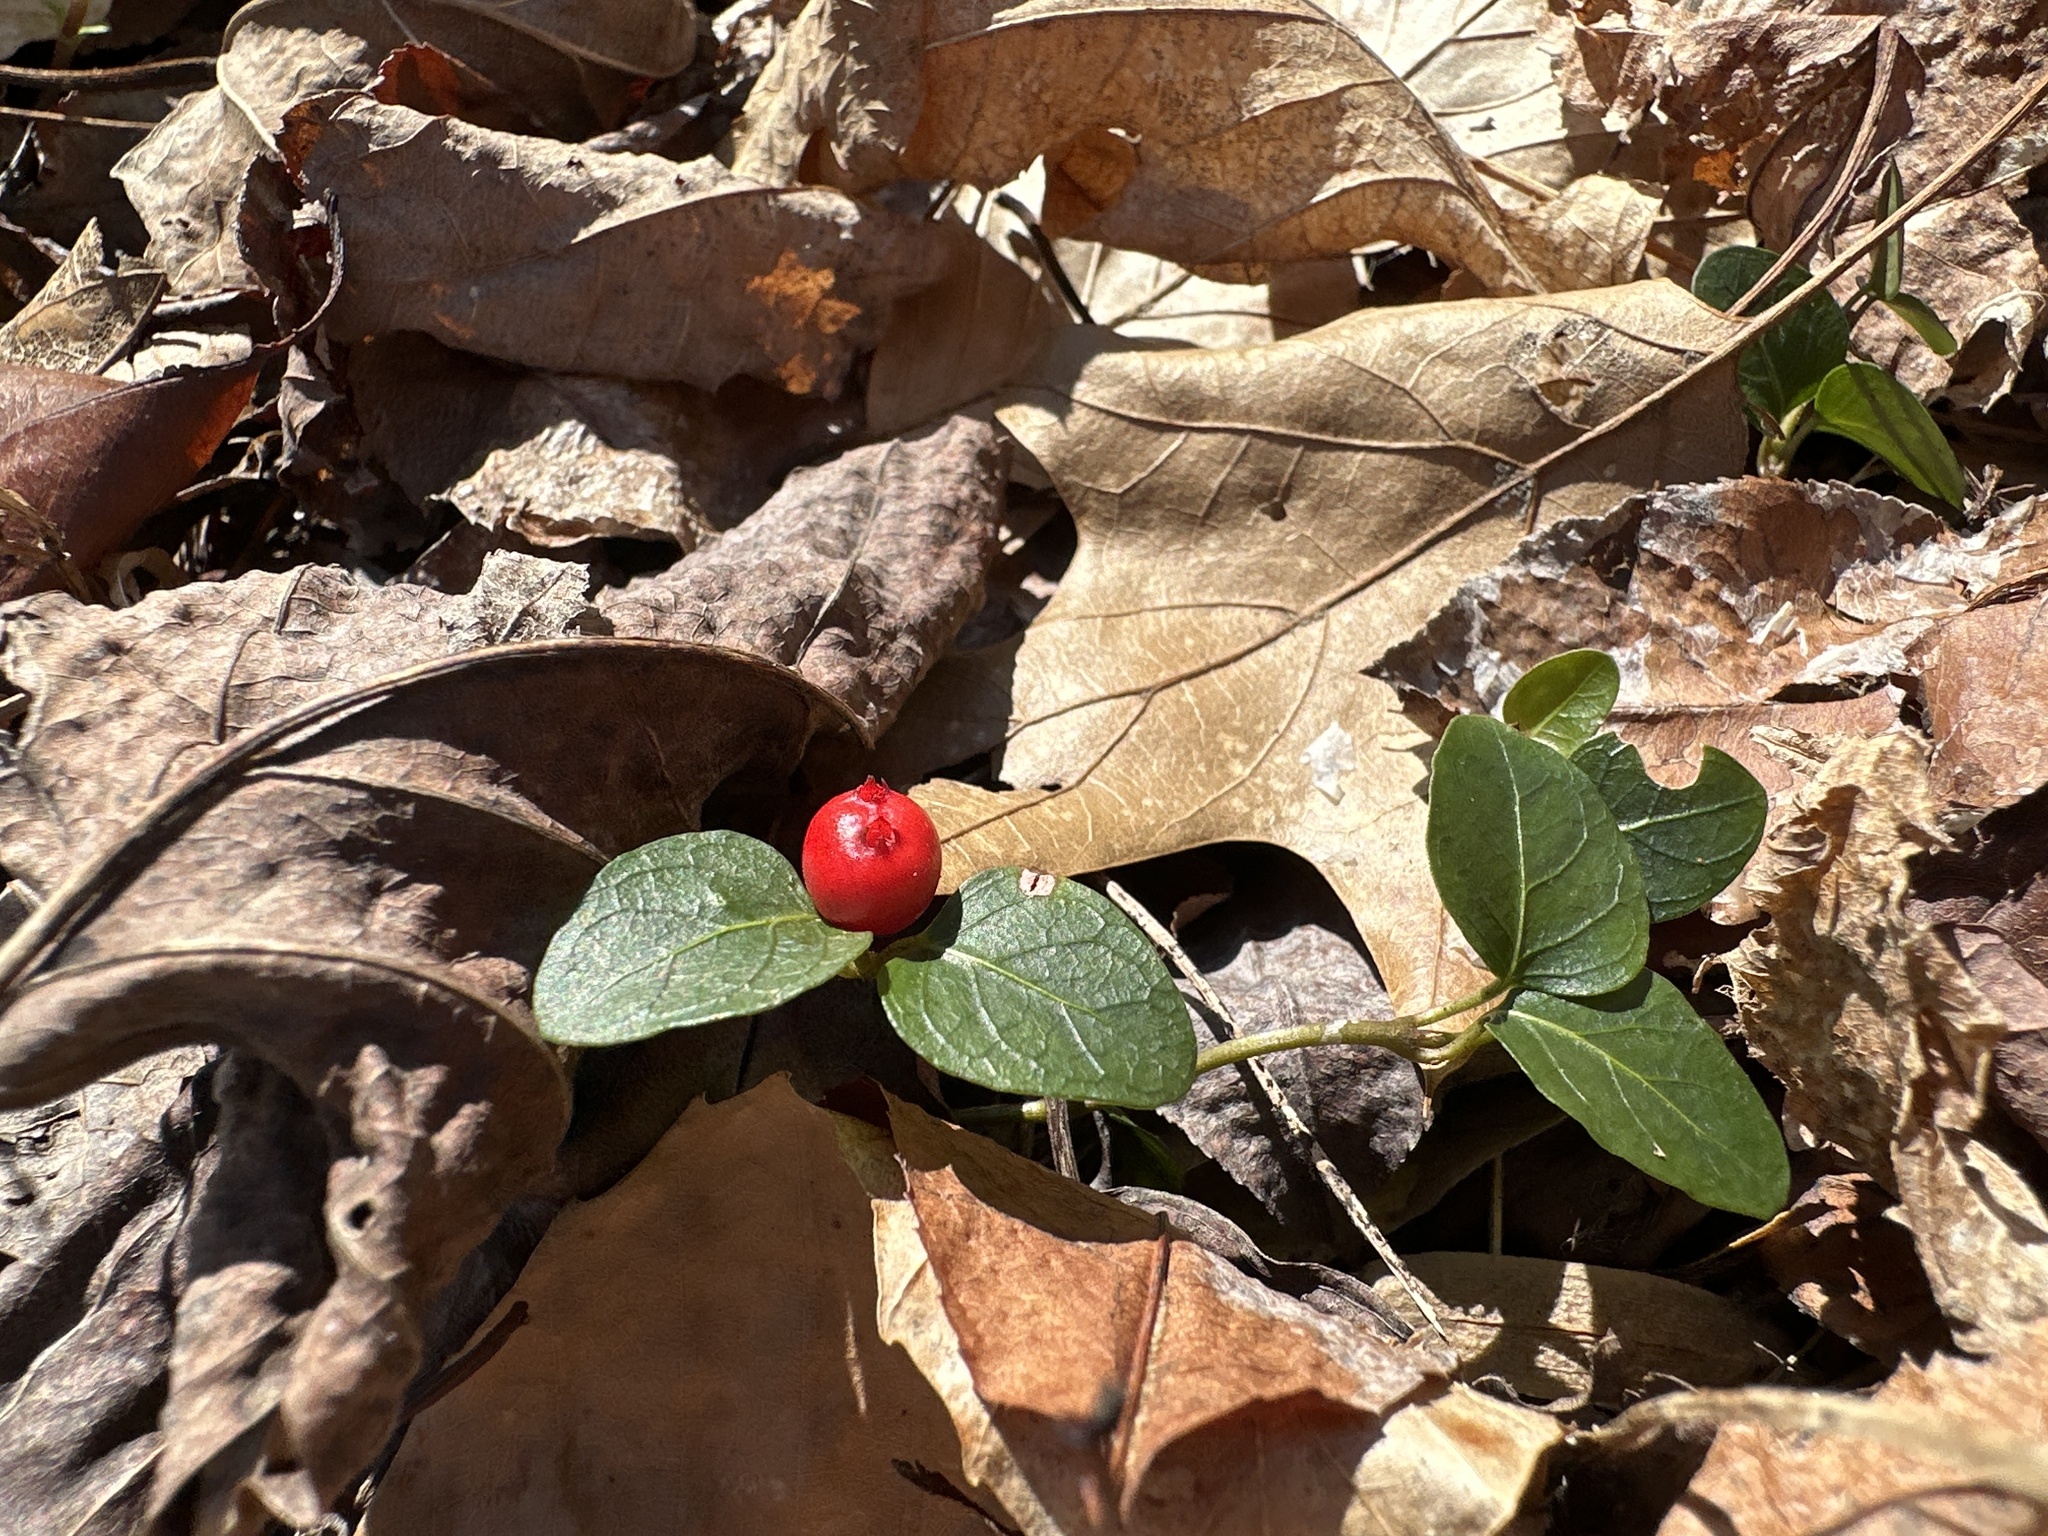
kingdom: Plantae
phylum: Tracheophyta
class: Magnoliopsida
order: Gentianales
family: Rubiaceae
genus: Mitchella
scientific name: Mitchella repens
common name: Partridge-berry
